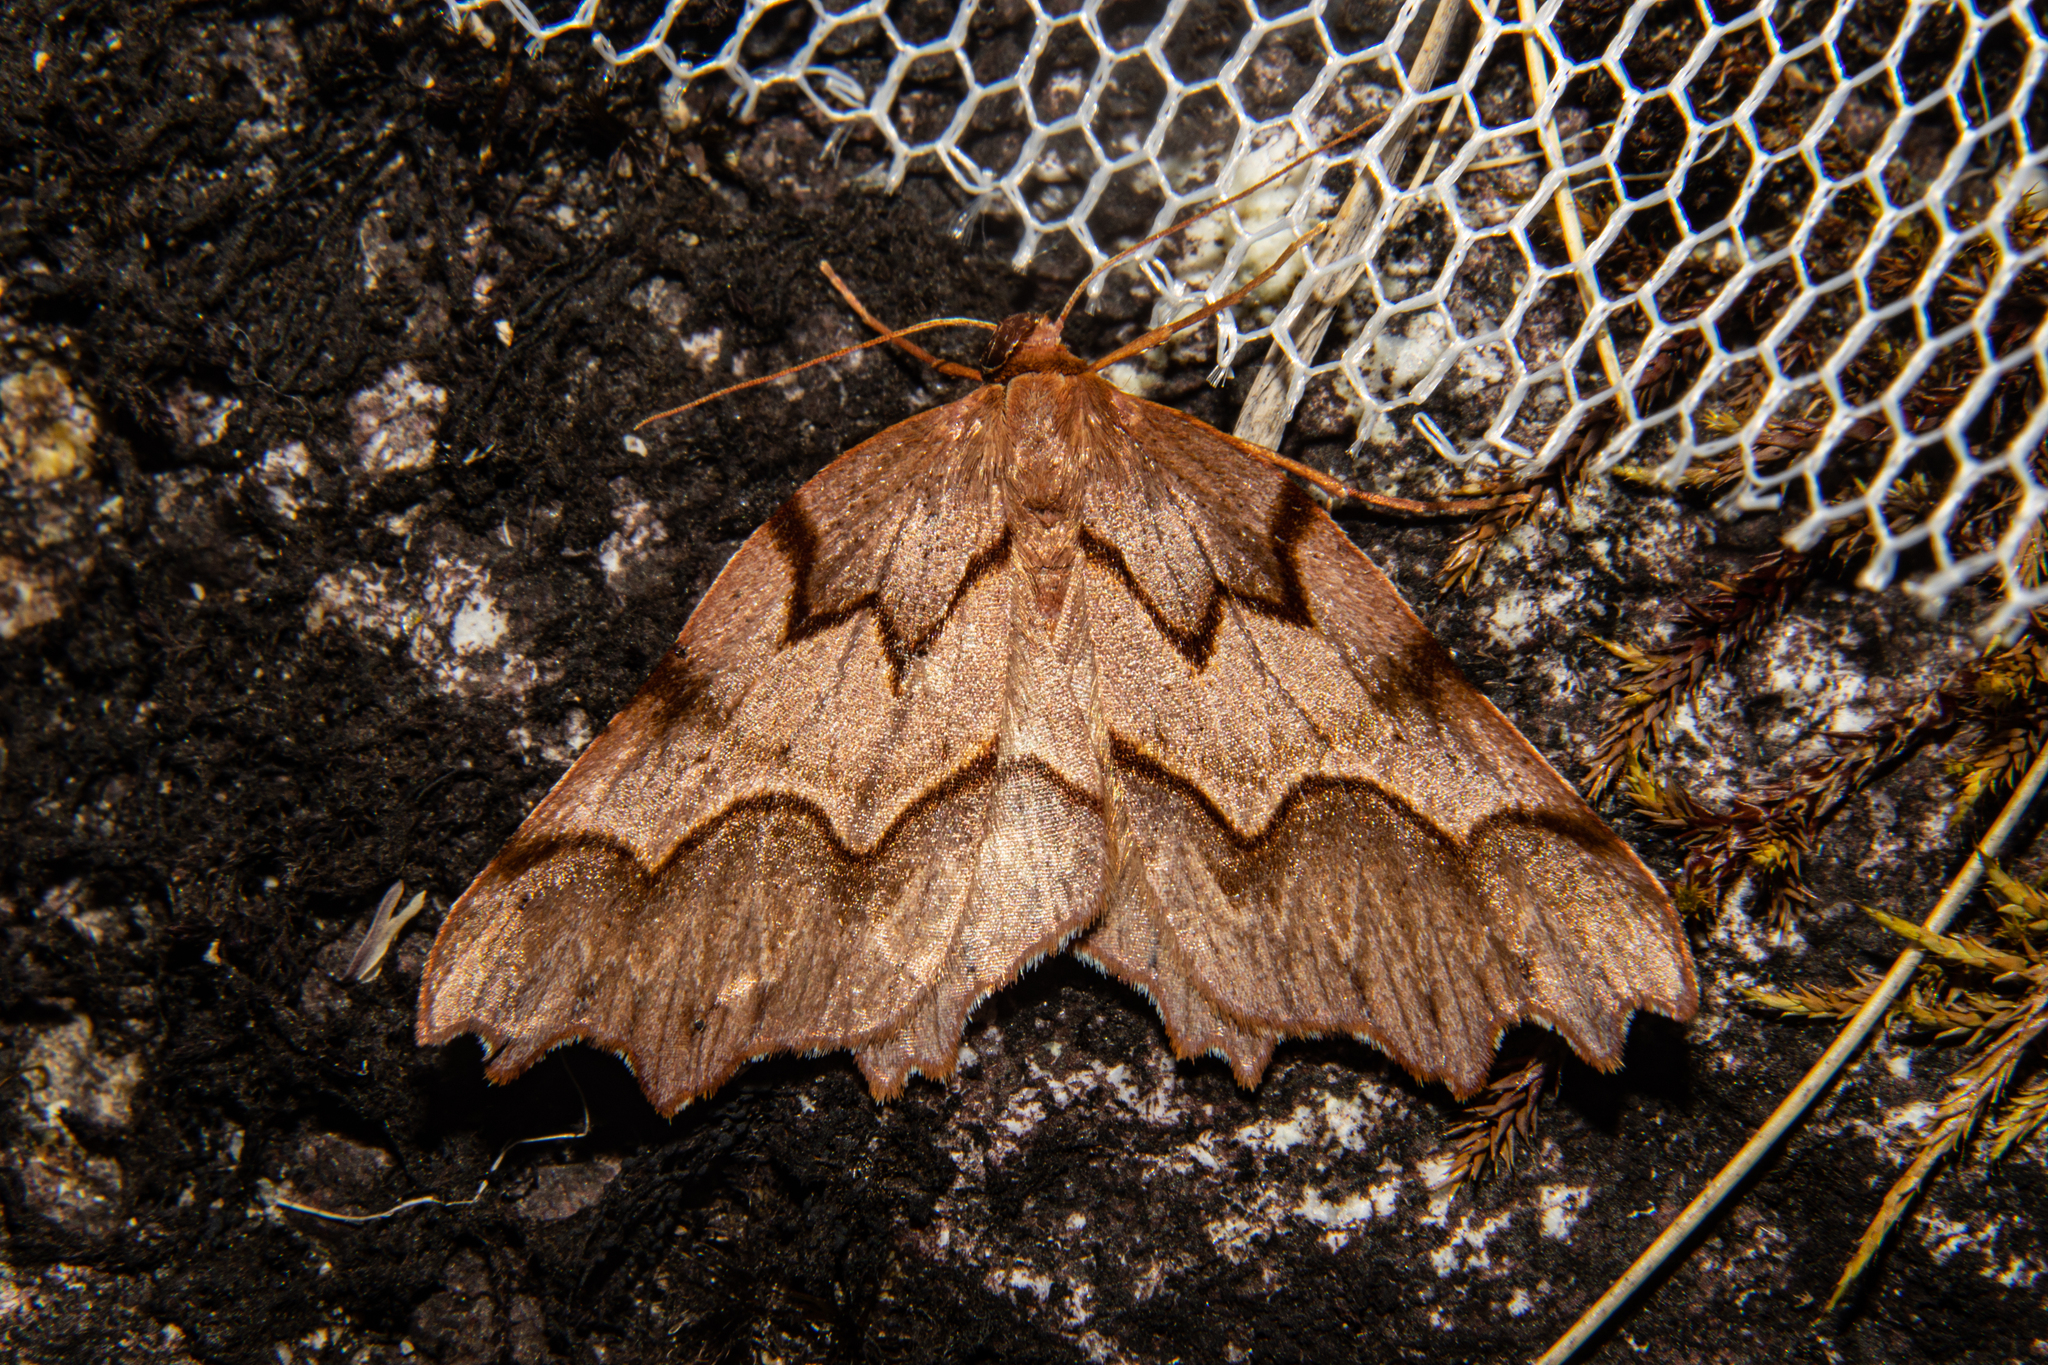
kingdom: Animalia
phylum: Arthropoda
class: Insecta
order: Lepidoptera
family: Geometridae
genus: Ischalis
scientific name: Ischalis fortinata
